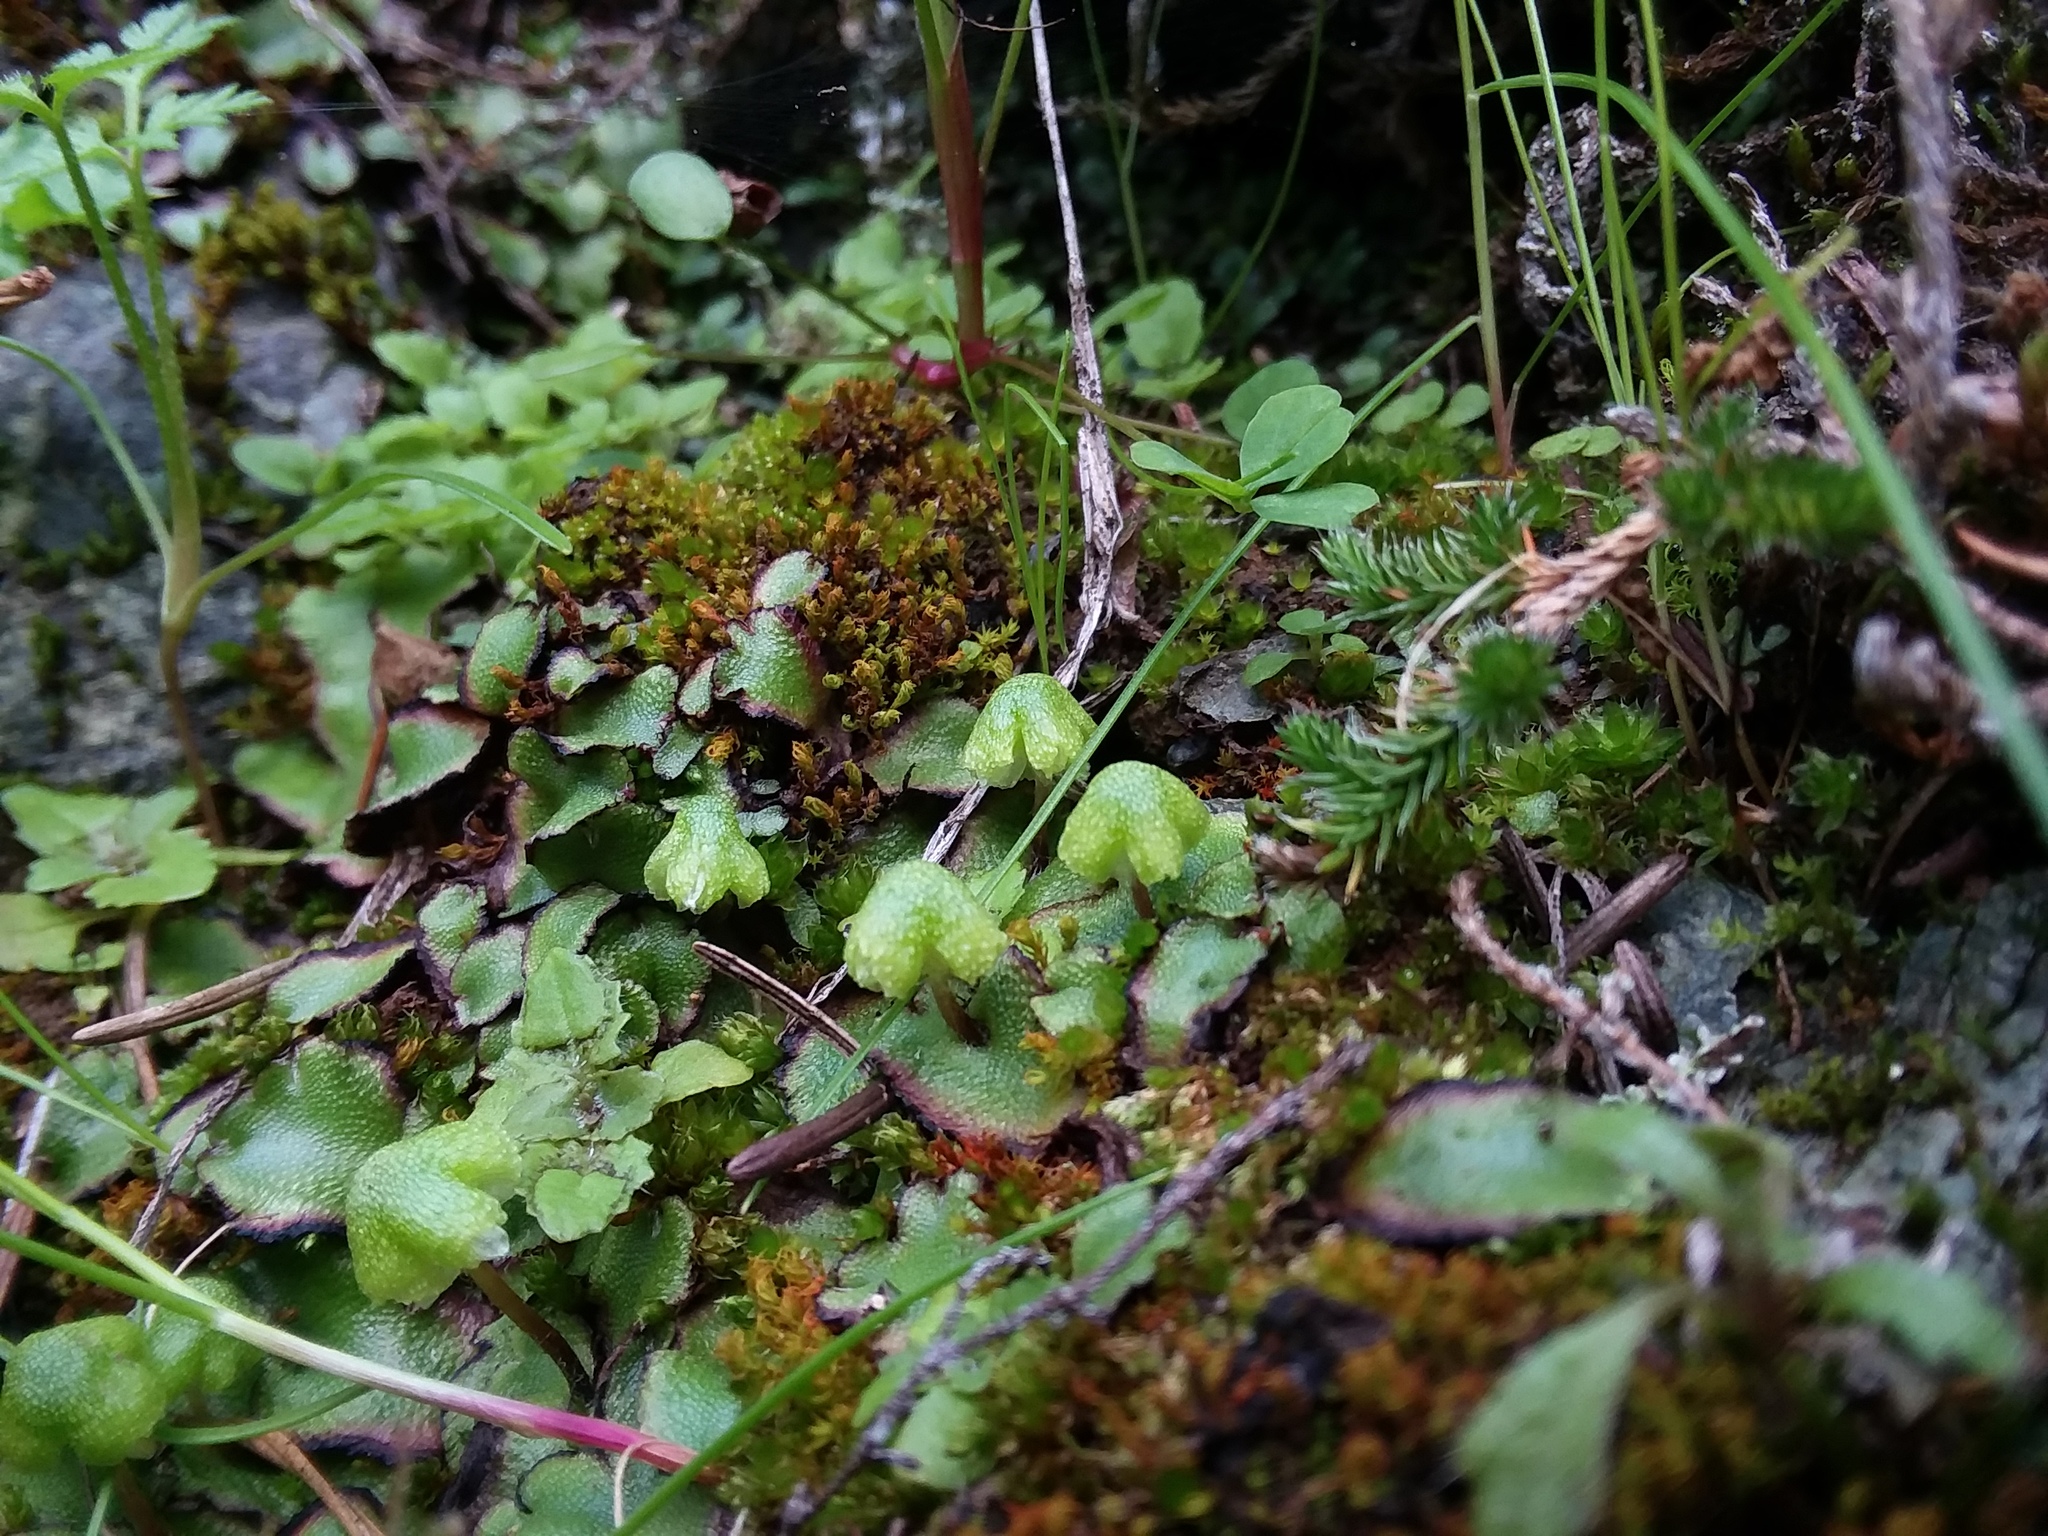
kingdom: Plantae
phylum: Marchantiophyta
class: Marchantiopsida
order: Marchantiales
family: Aytoniaceae
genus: Asterella
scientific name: Asterella californica
